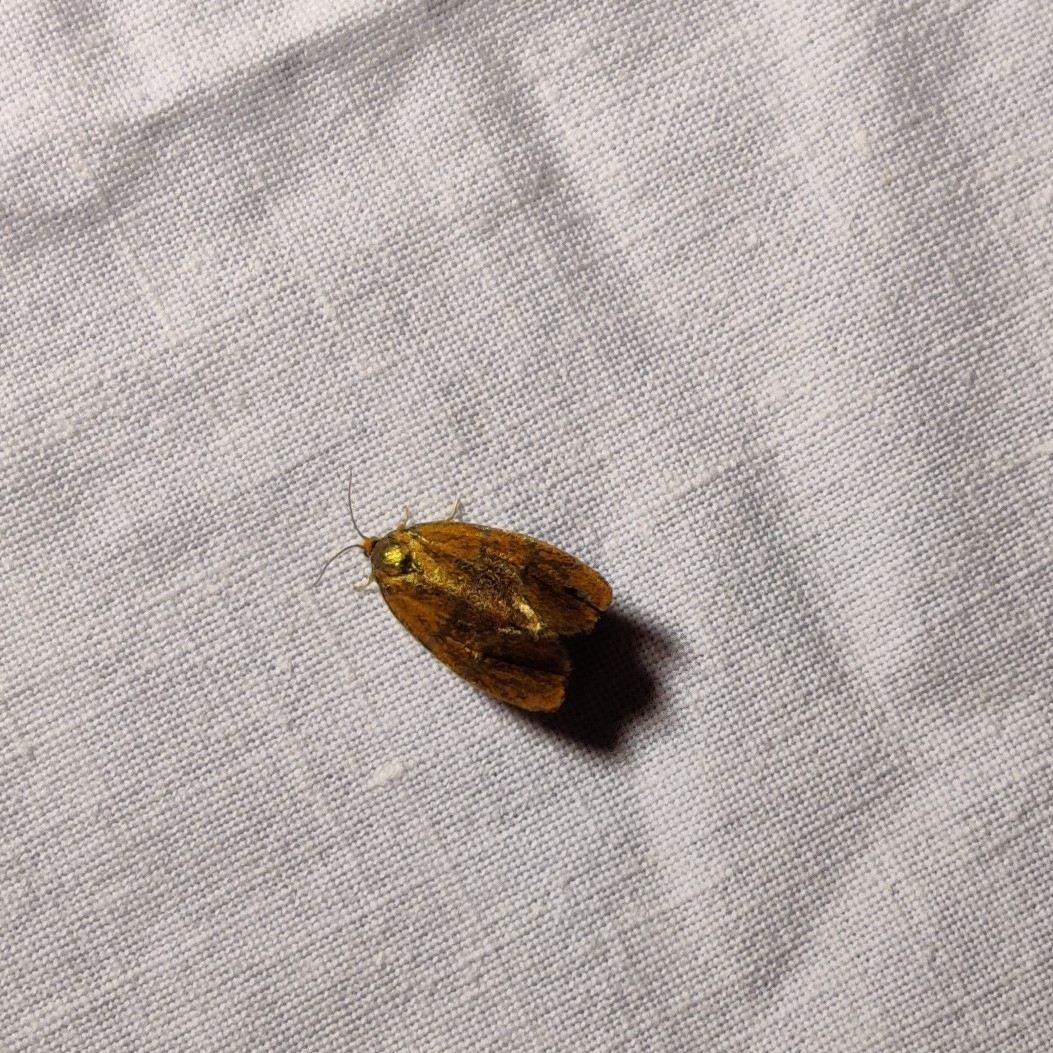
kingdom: Animalia
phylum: Arthropoda
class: Insecta
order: Lepidoptera
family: Tortricidae
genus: Ptycholoma
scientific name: Ptycholoma lecheana
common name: Leches twist moth
